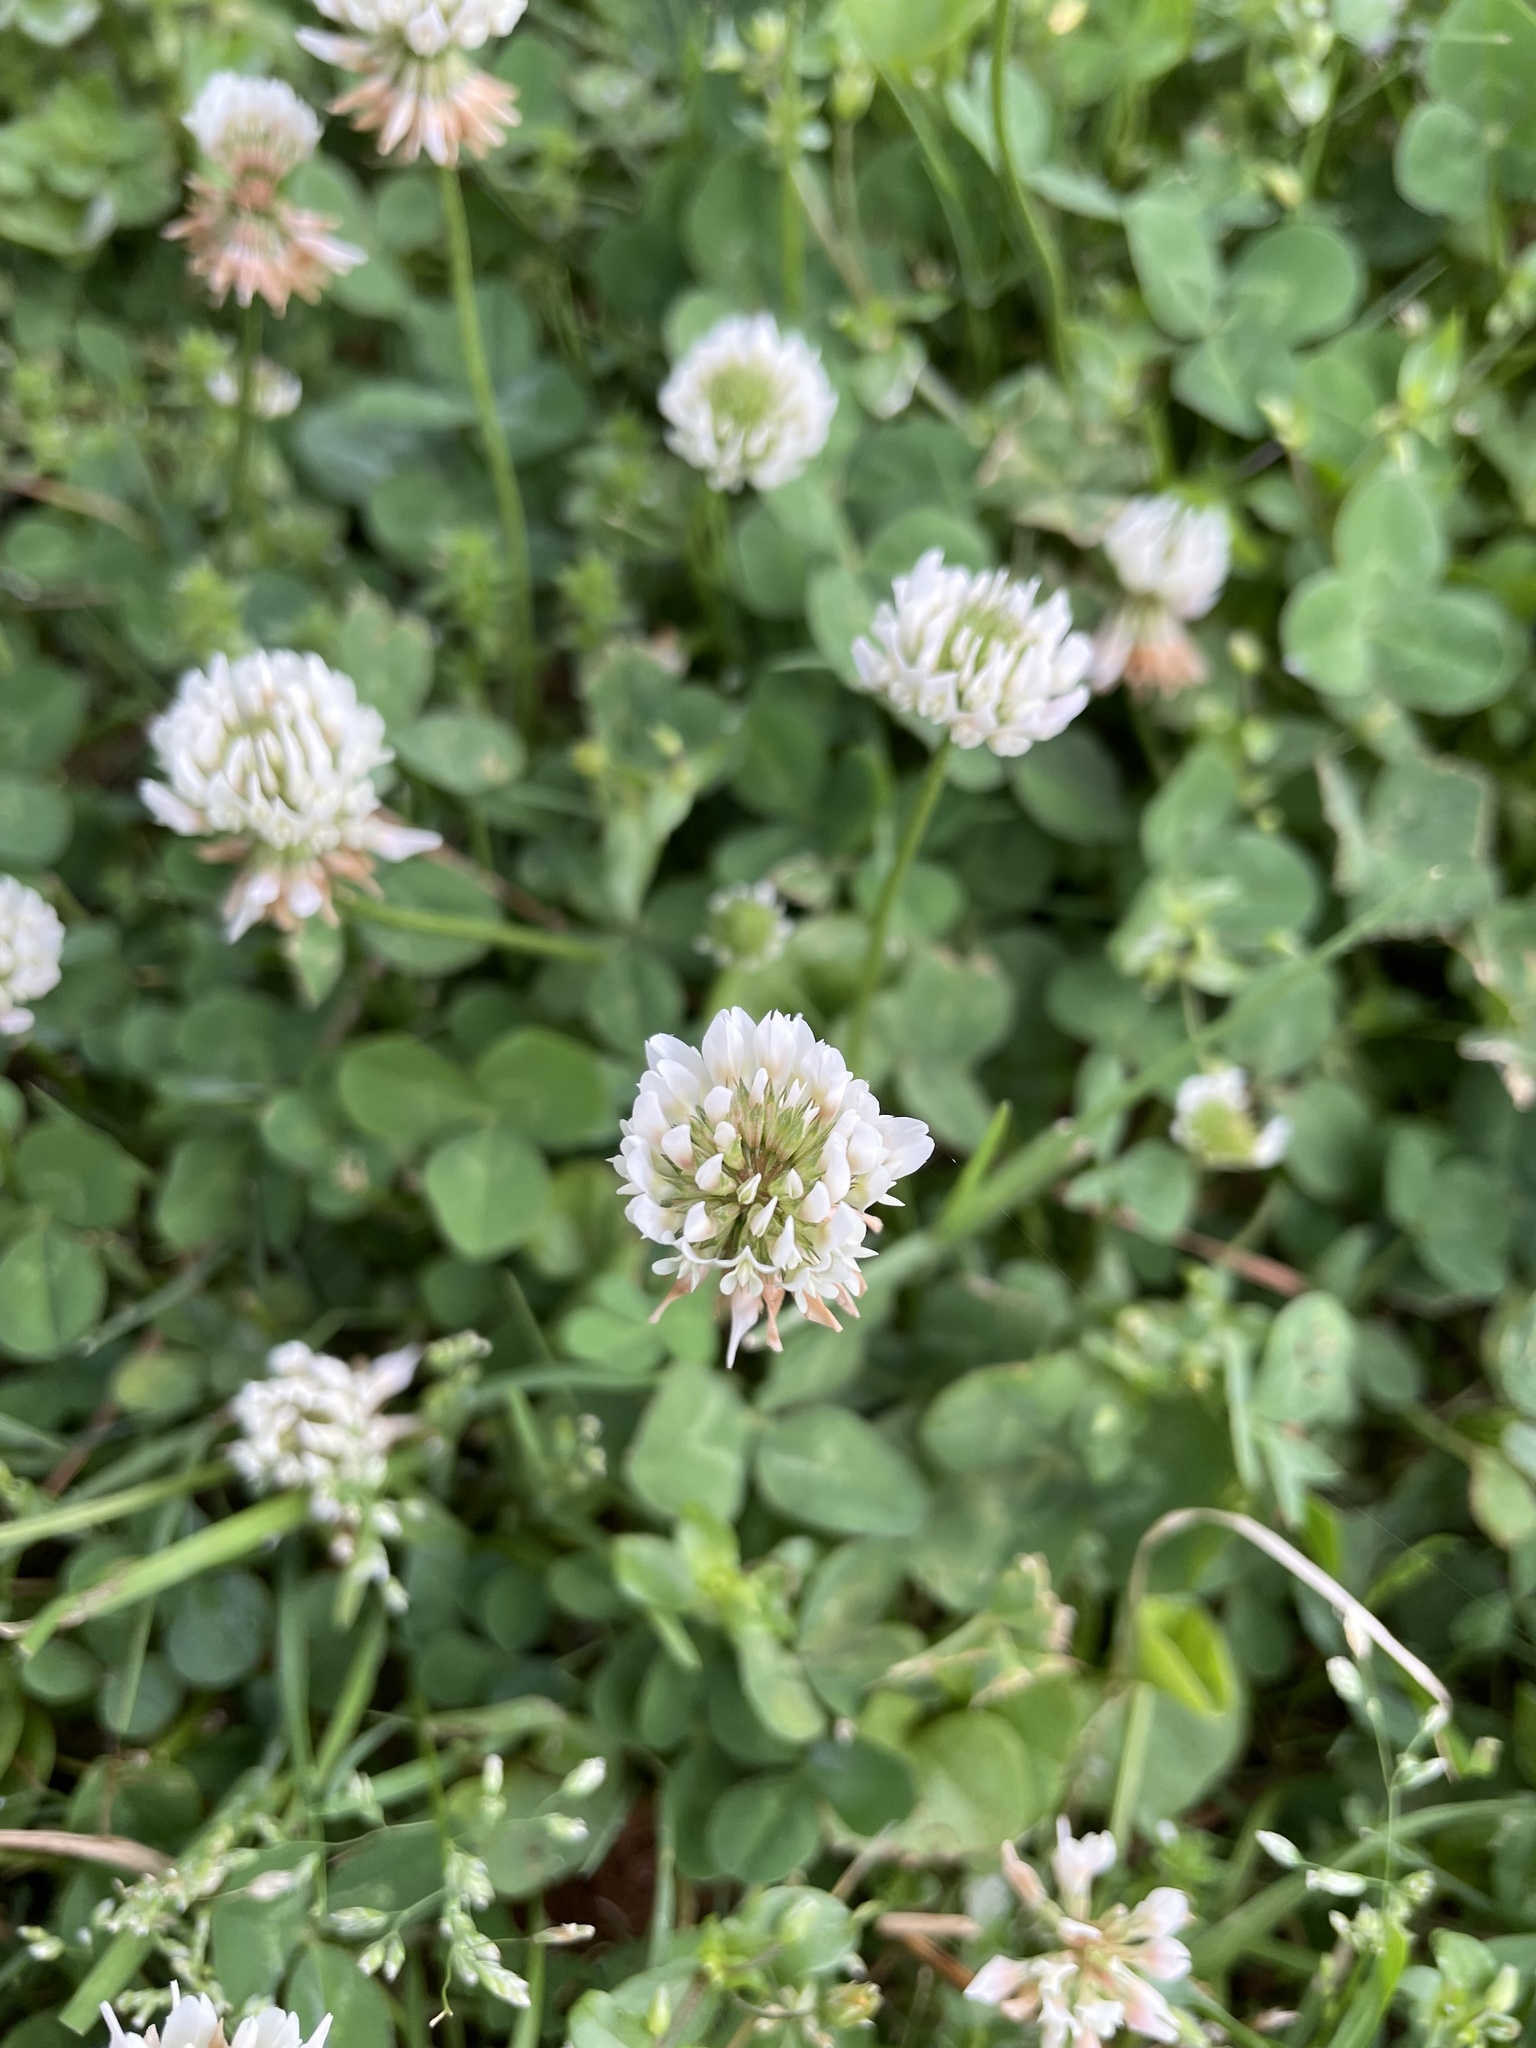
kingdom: Plantae
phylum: Tracheophyta
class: Magnoliopsida
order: Fabales
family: Fabaceae
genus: Trifolium
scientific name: Trifolium repens
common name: White clover
